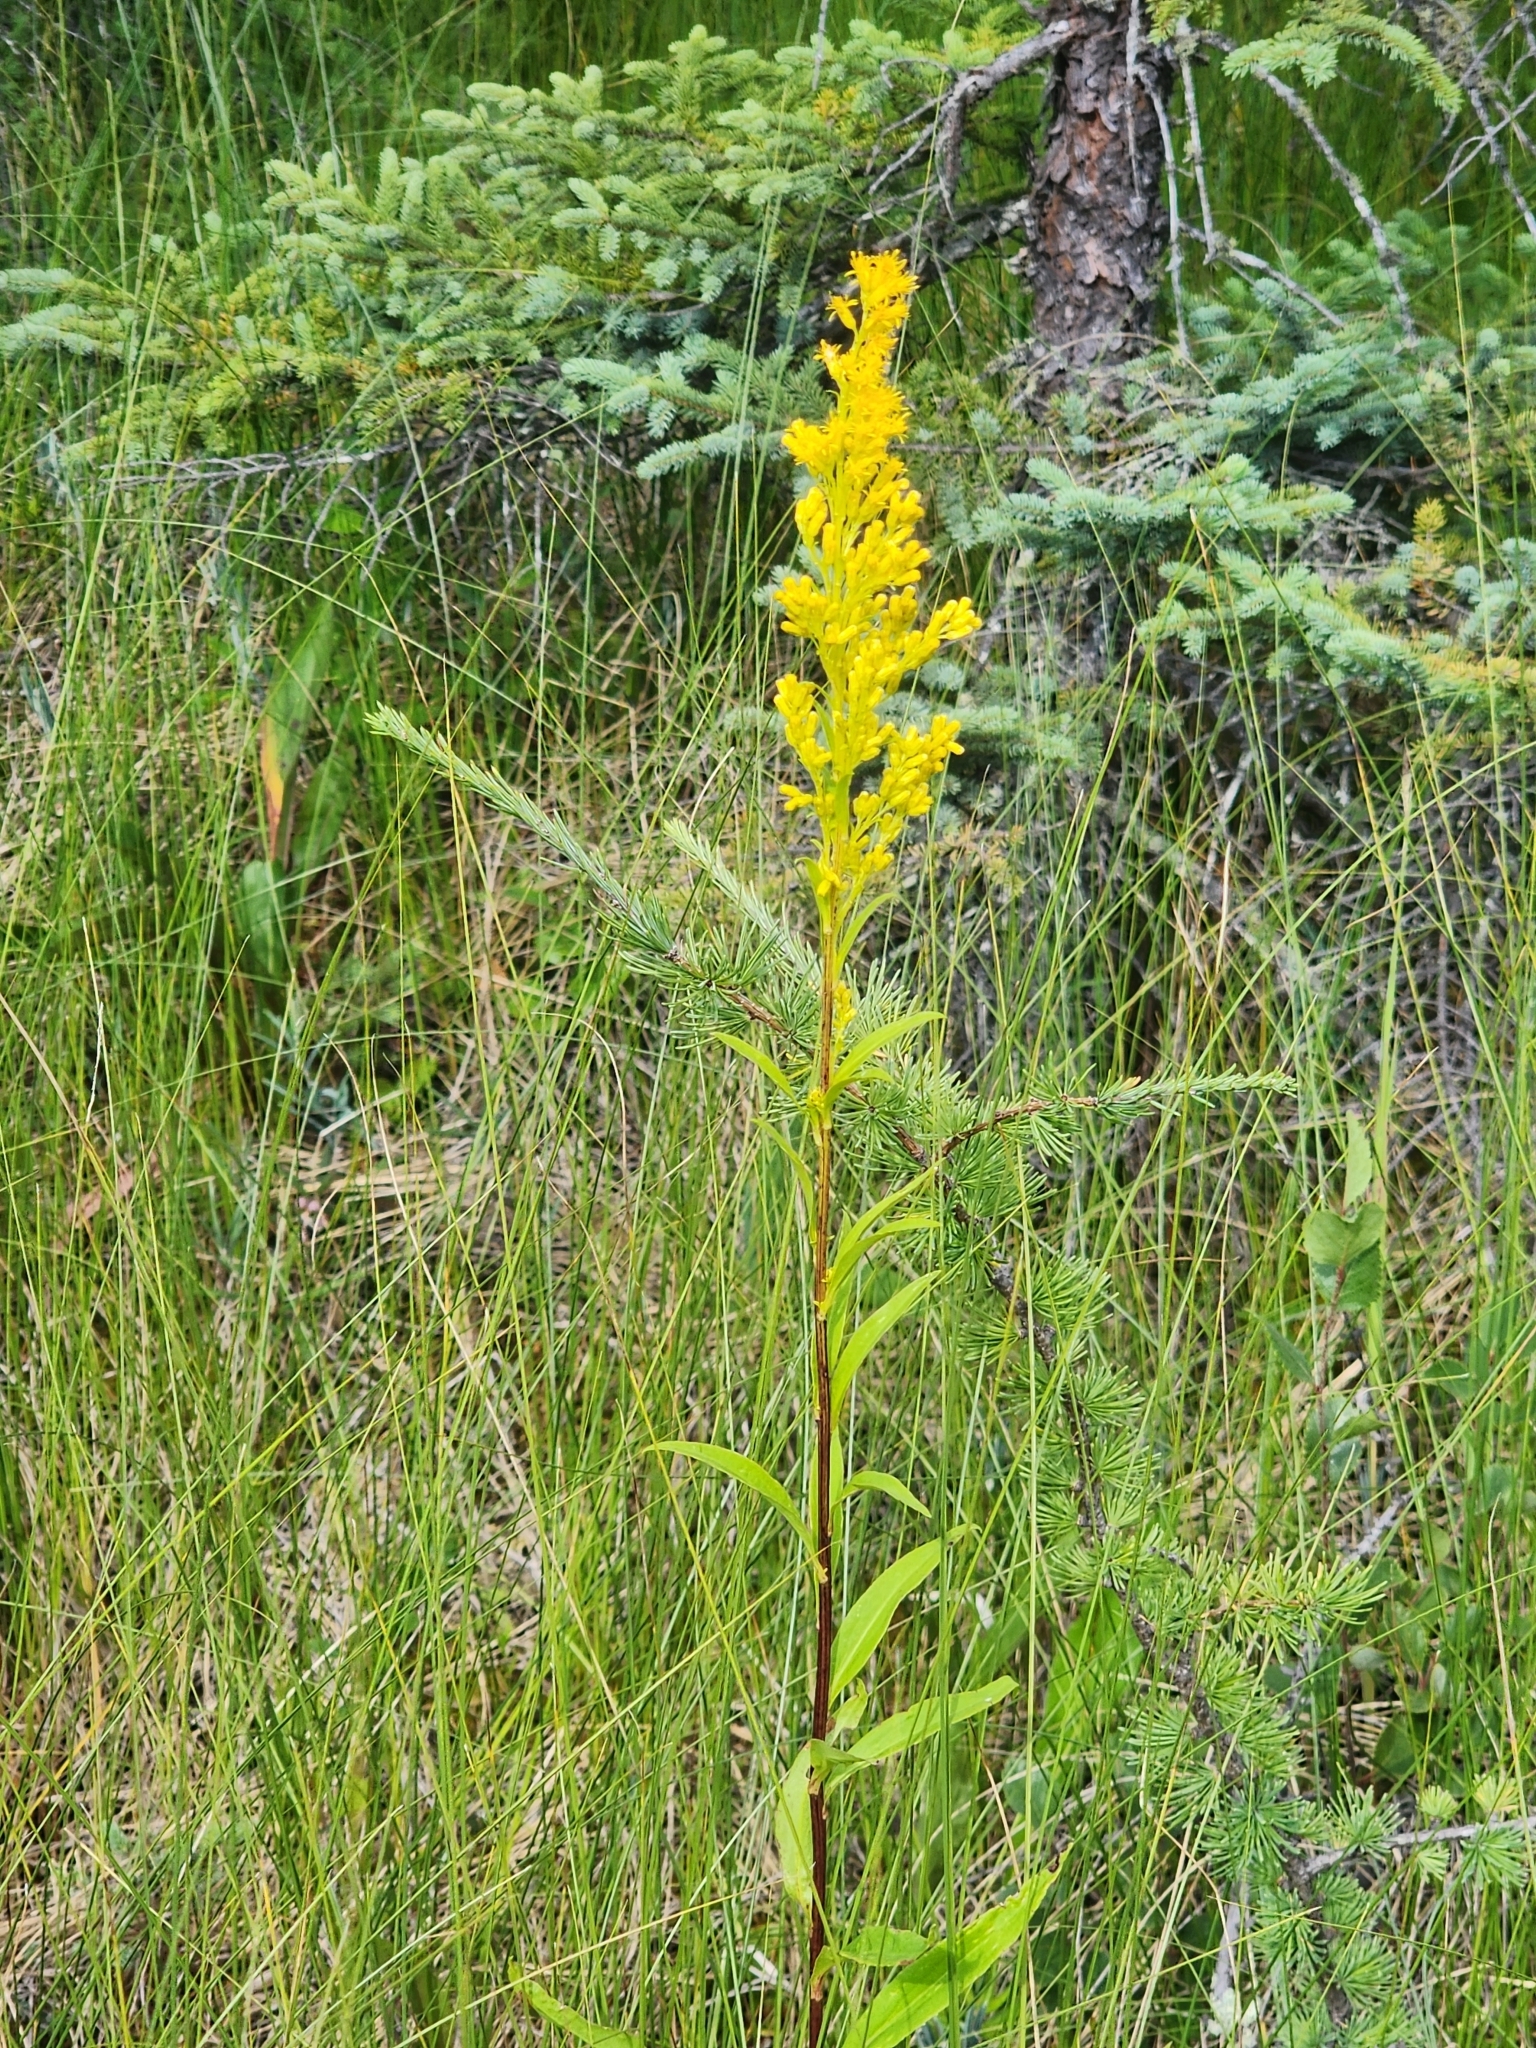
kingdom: Plantae
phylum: Tracheophyta
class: Magnoliopsida
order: Asterales
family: Asteraceae
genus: Solidago
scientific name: Solidago uliginosa
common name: Bog goldenrod
